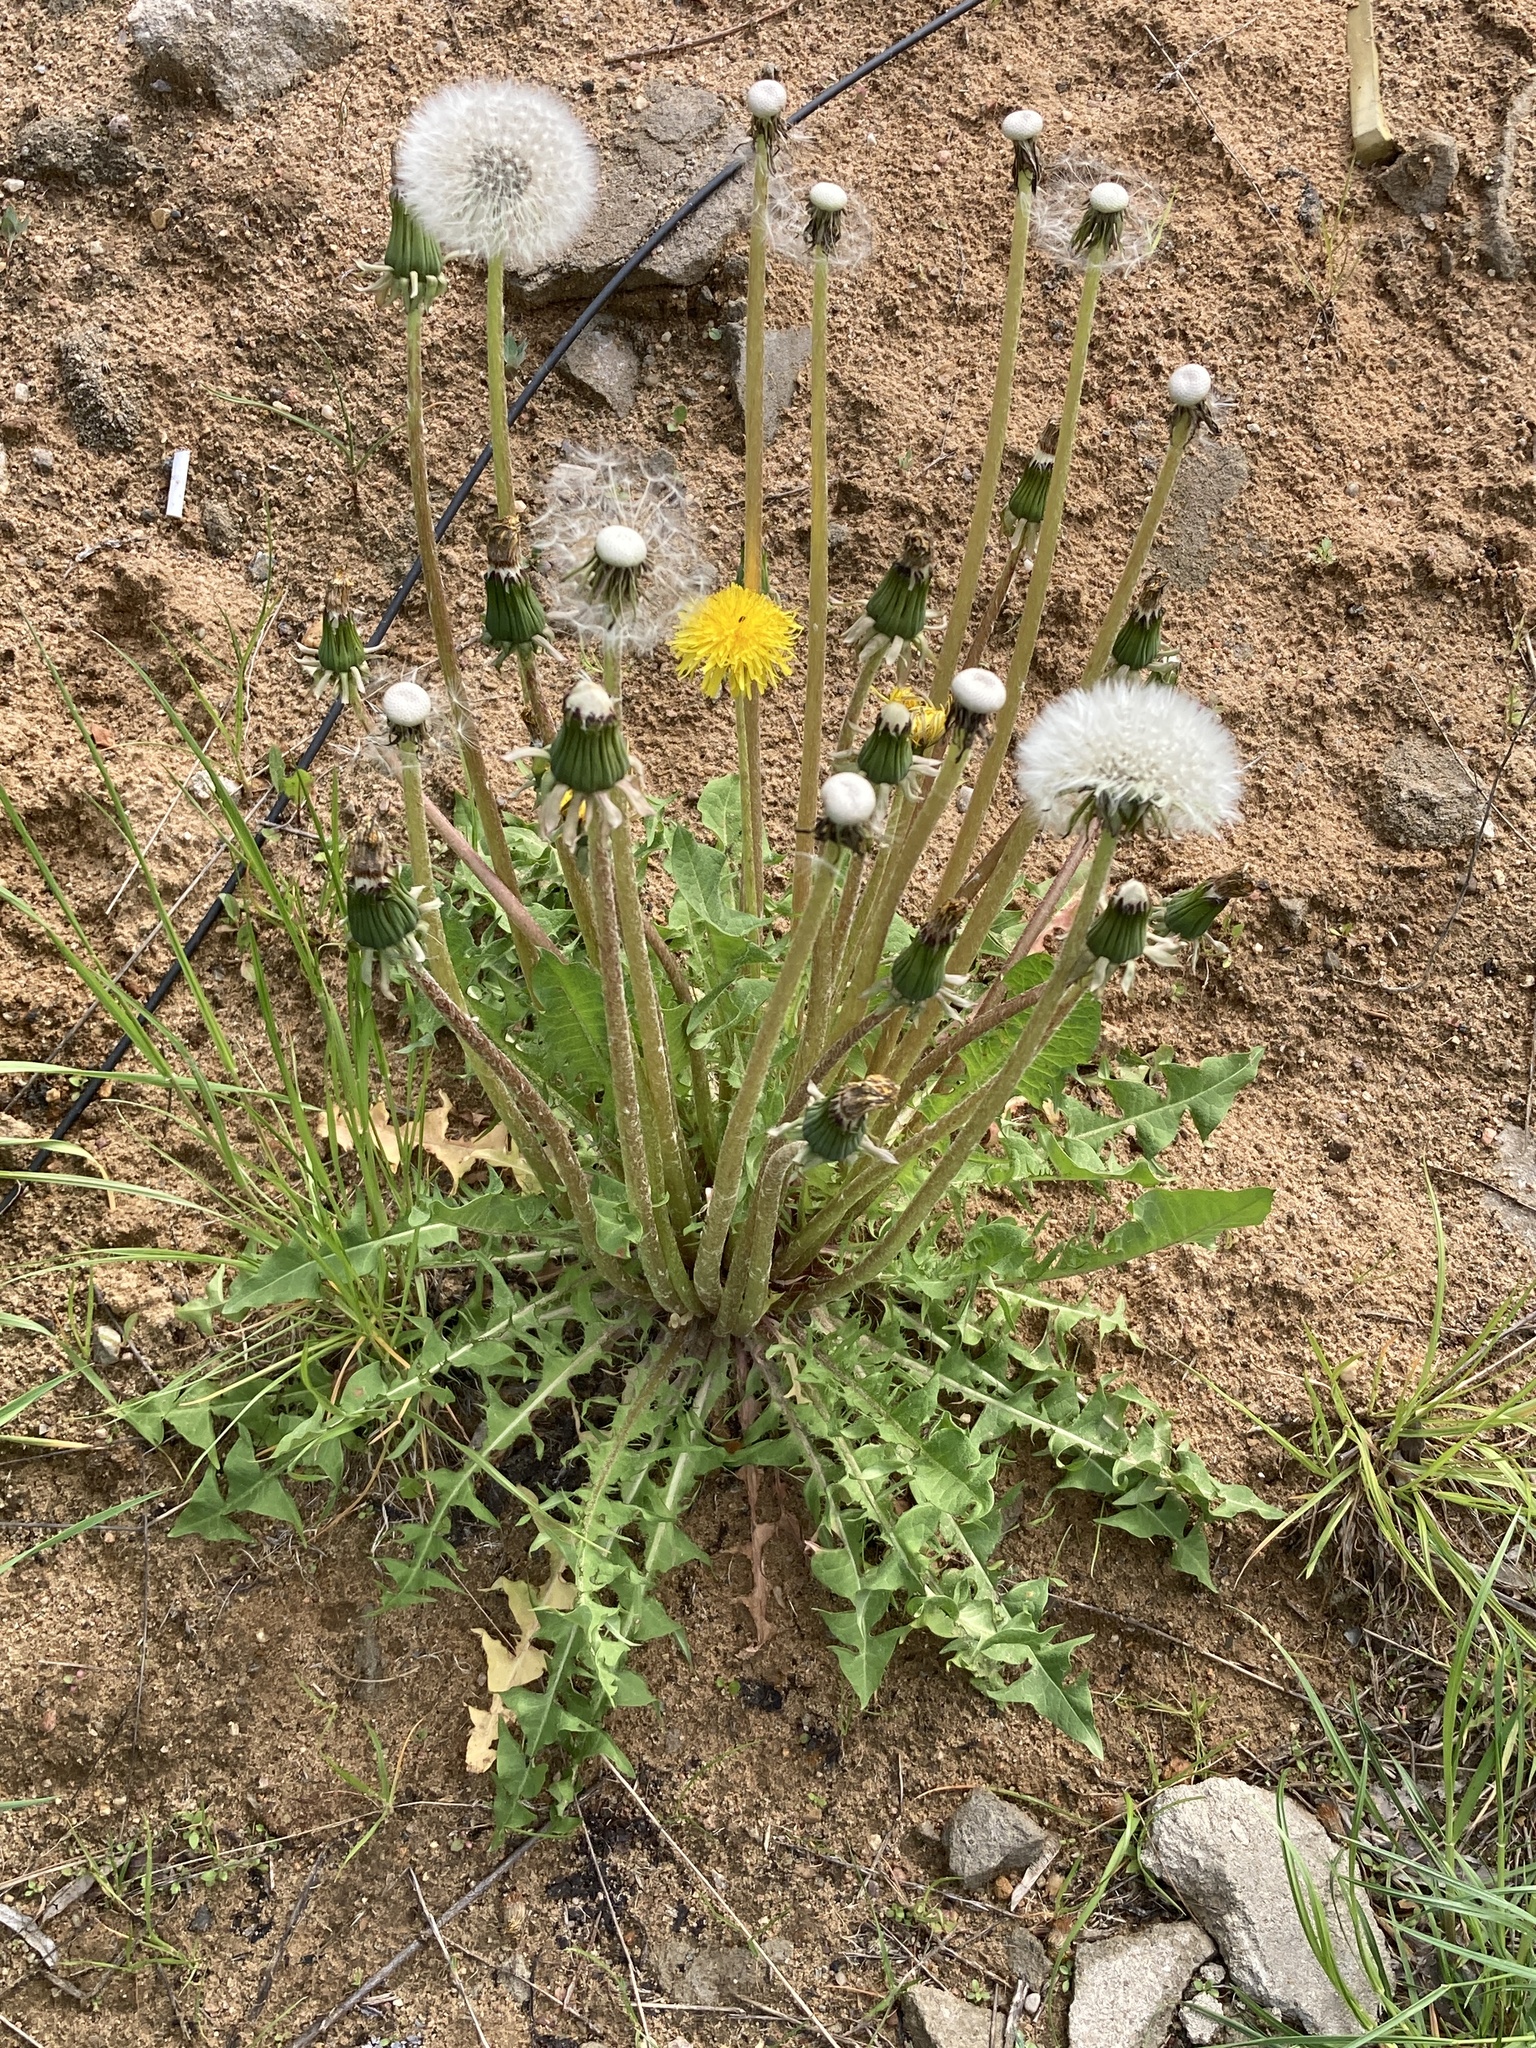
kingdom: Plantae
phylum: Tracheophyta
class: Magnoliopsida
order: Asterales
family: Asteraceae
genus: Taraxacum
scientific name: Taraxacum officinale
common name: Common dandelion
